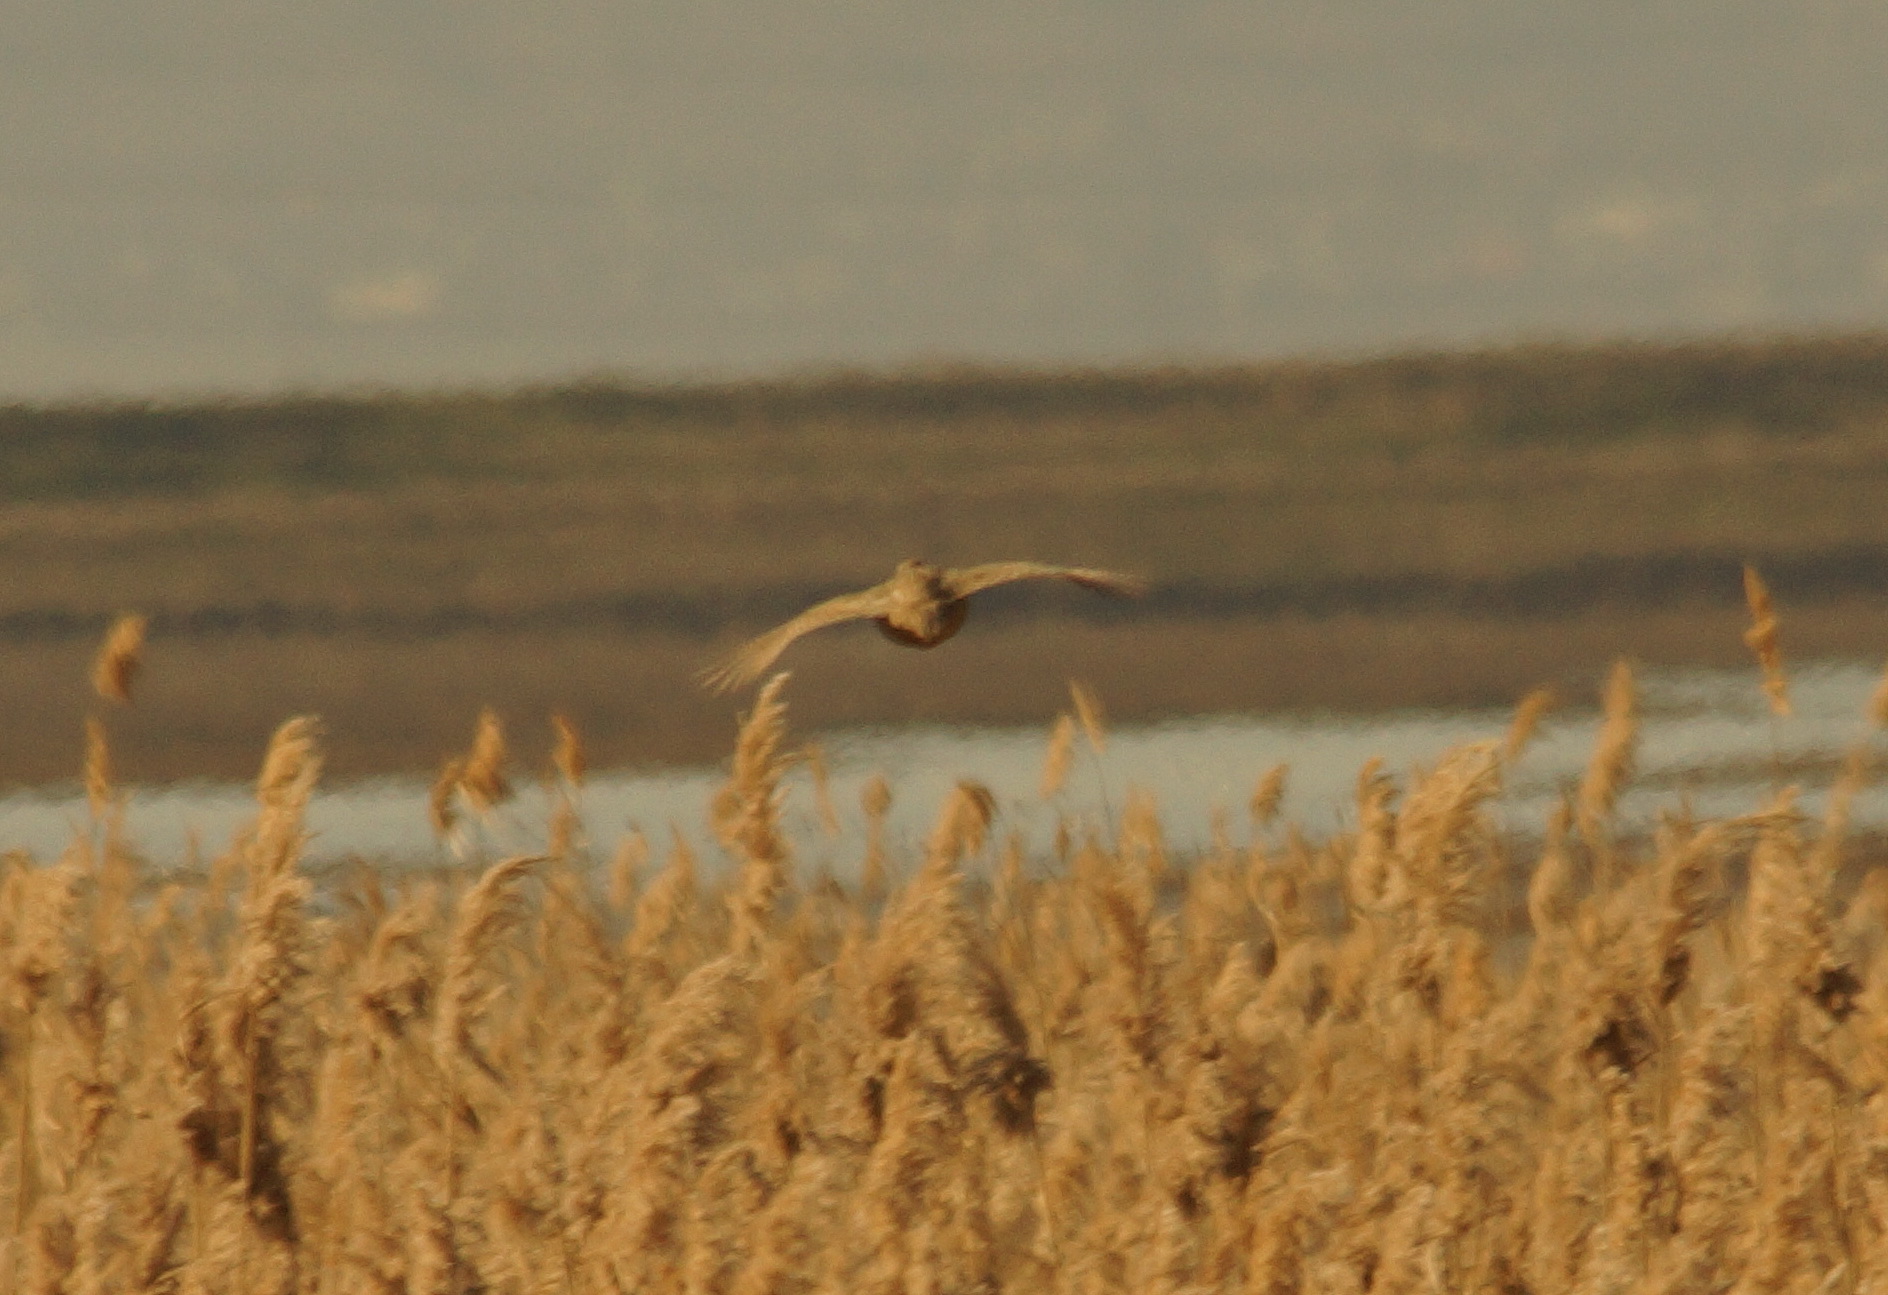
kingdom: Animalia
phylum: Chordata
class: Aves
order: Galliformes
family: Phasianidae
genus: Phasianus
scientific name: Phasianus colchicus
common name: Common pheasant
